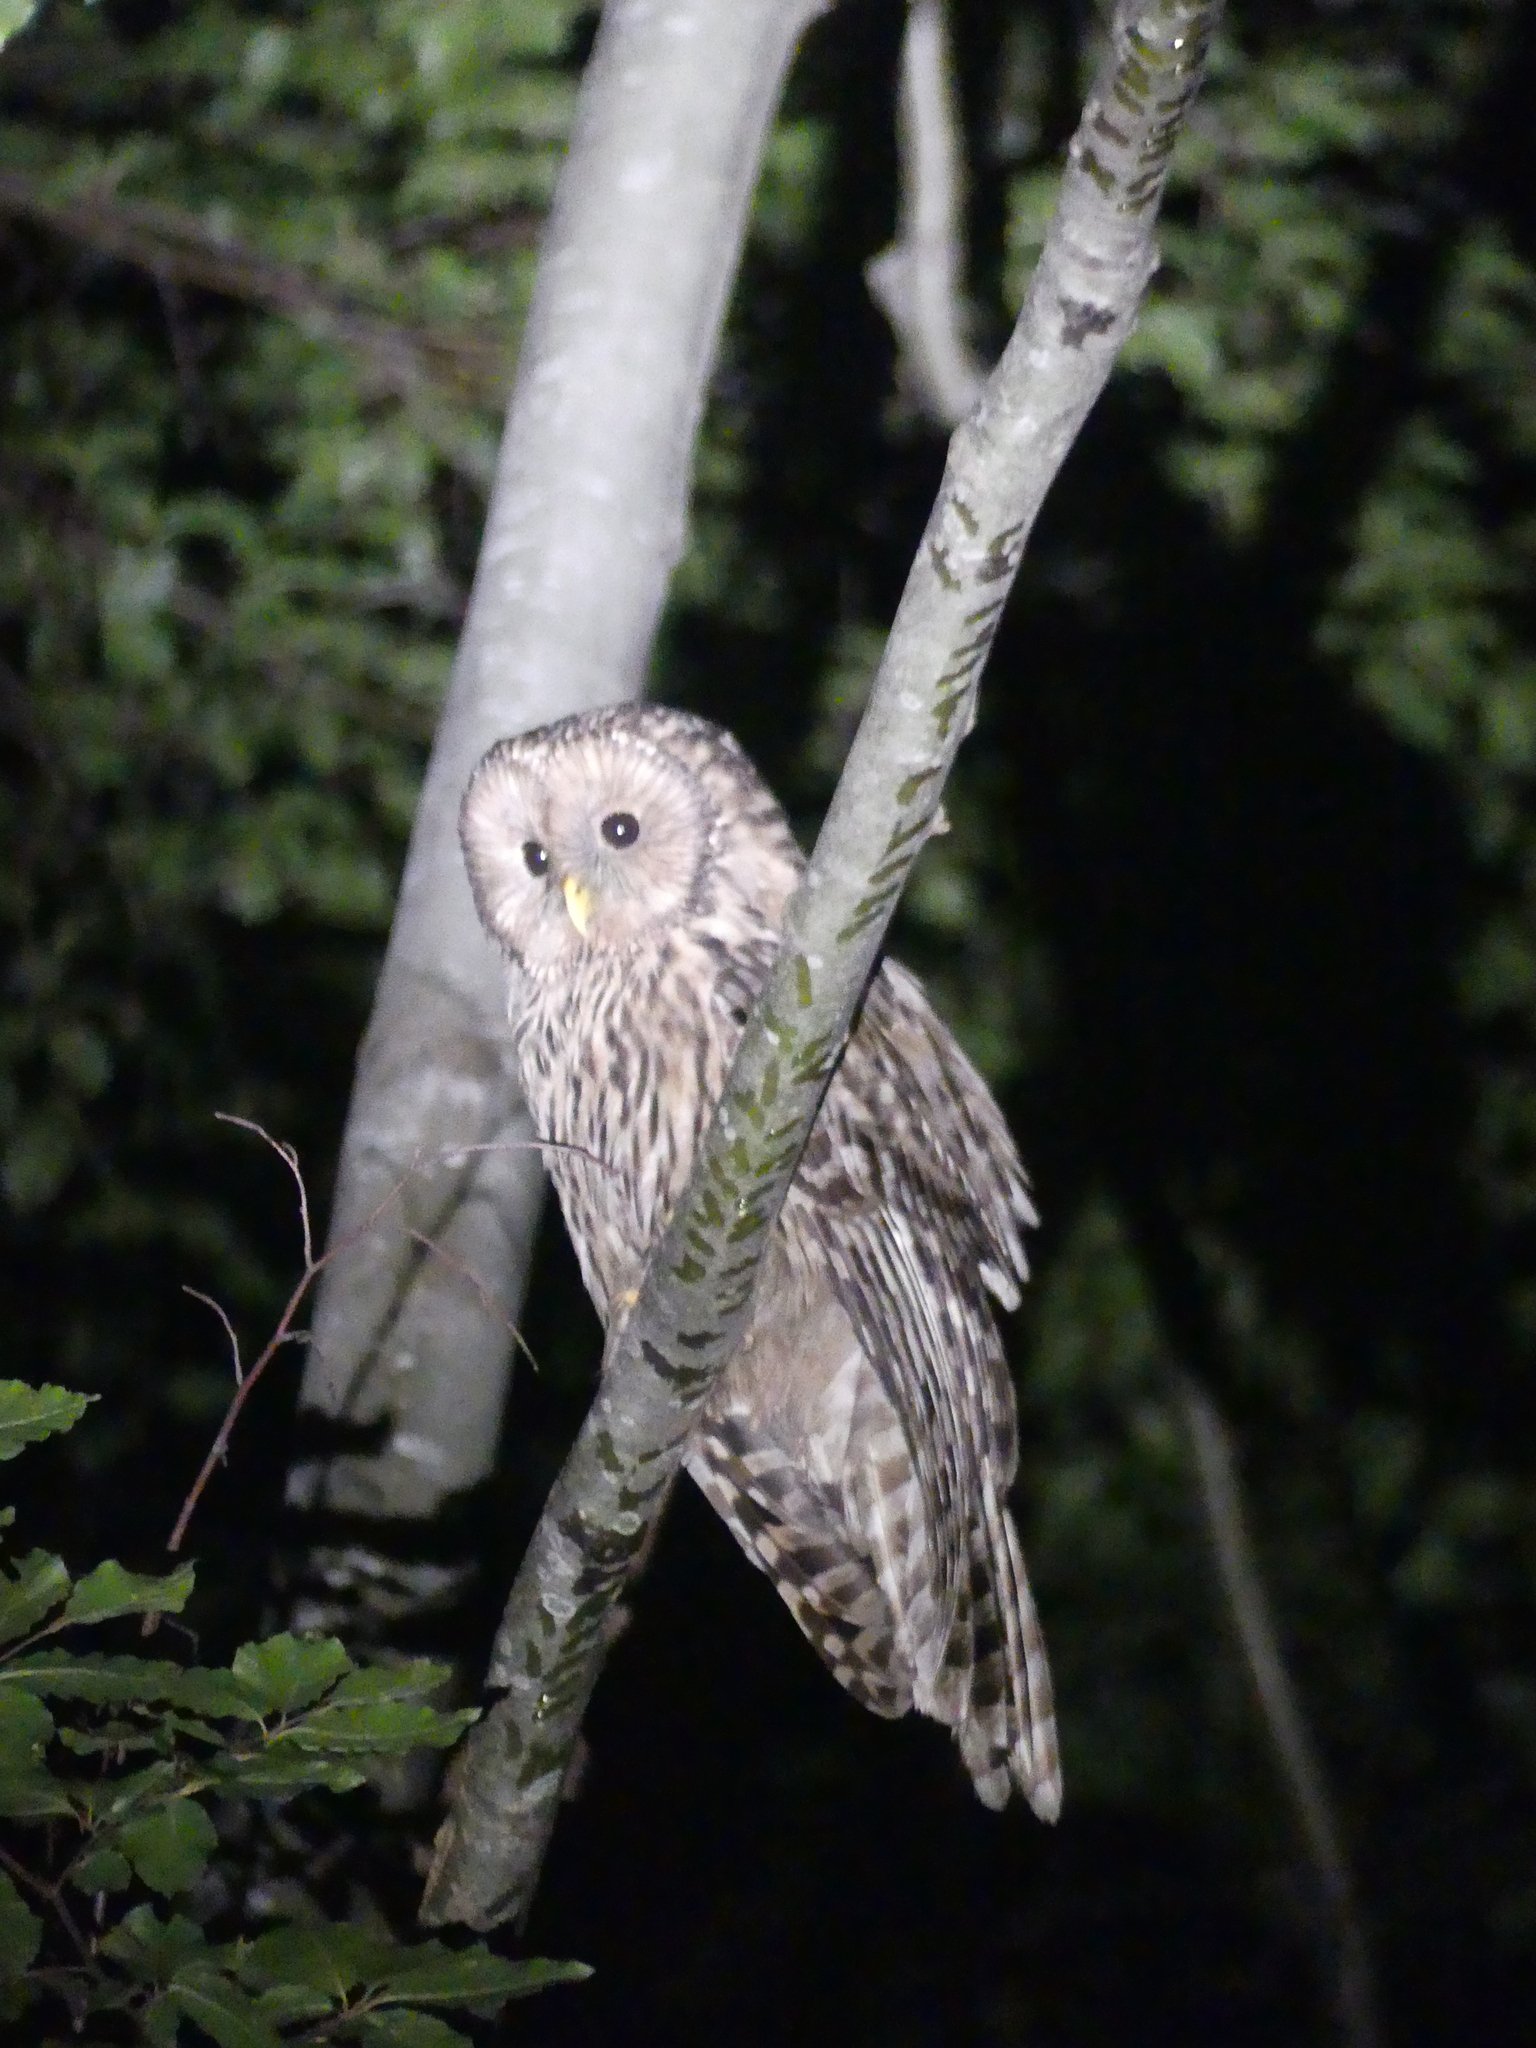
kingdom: Animalia
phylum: Chordata
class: Aves
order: Strigiformes
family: Strigidae
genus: Strix
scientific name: Strix uralensis
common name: Ural owl
